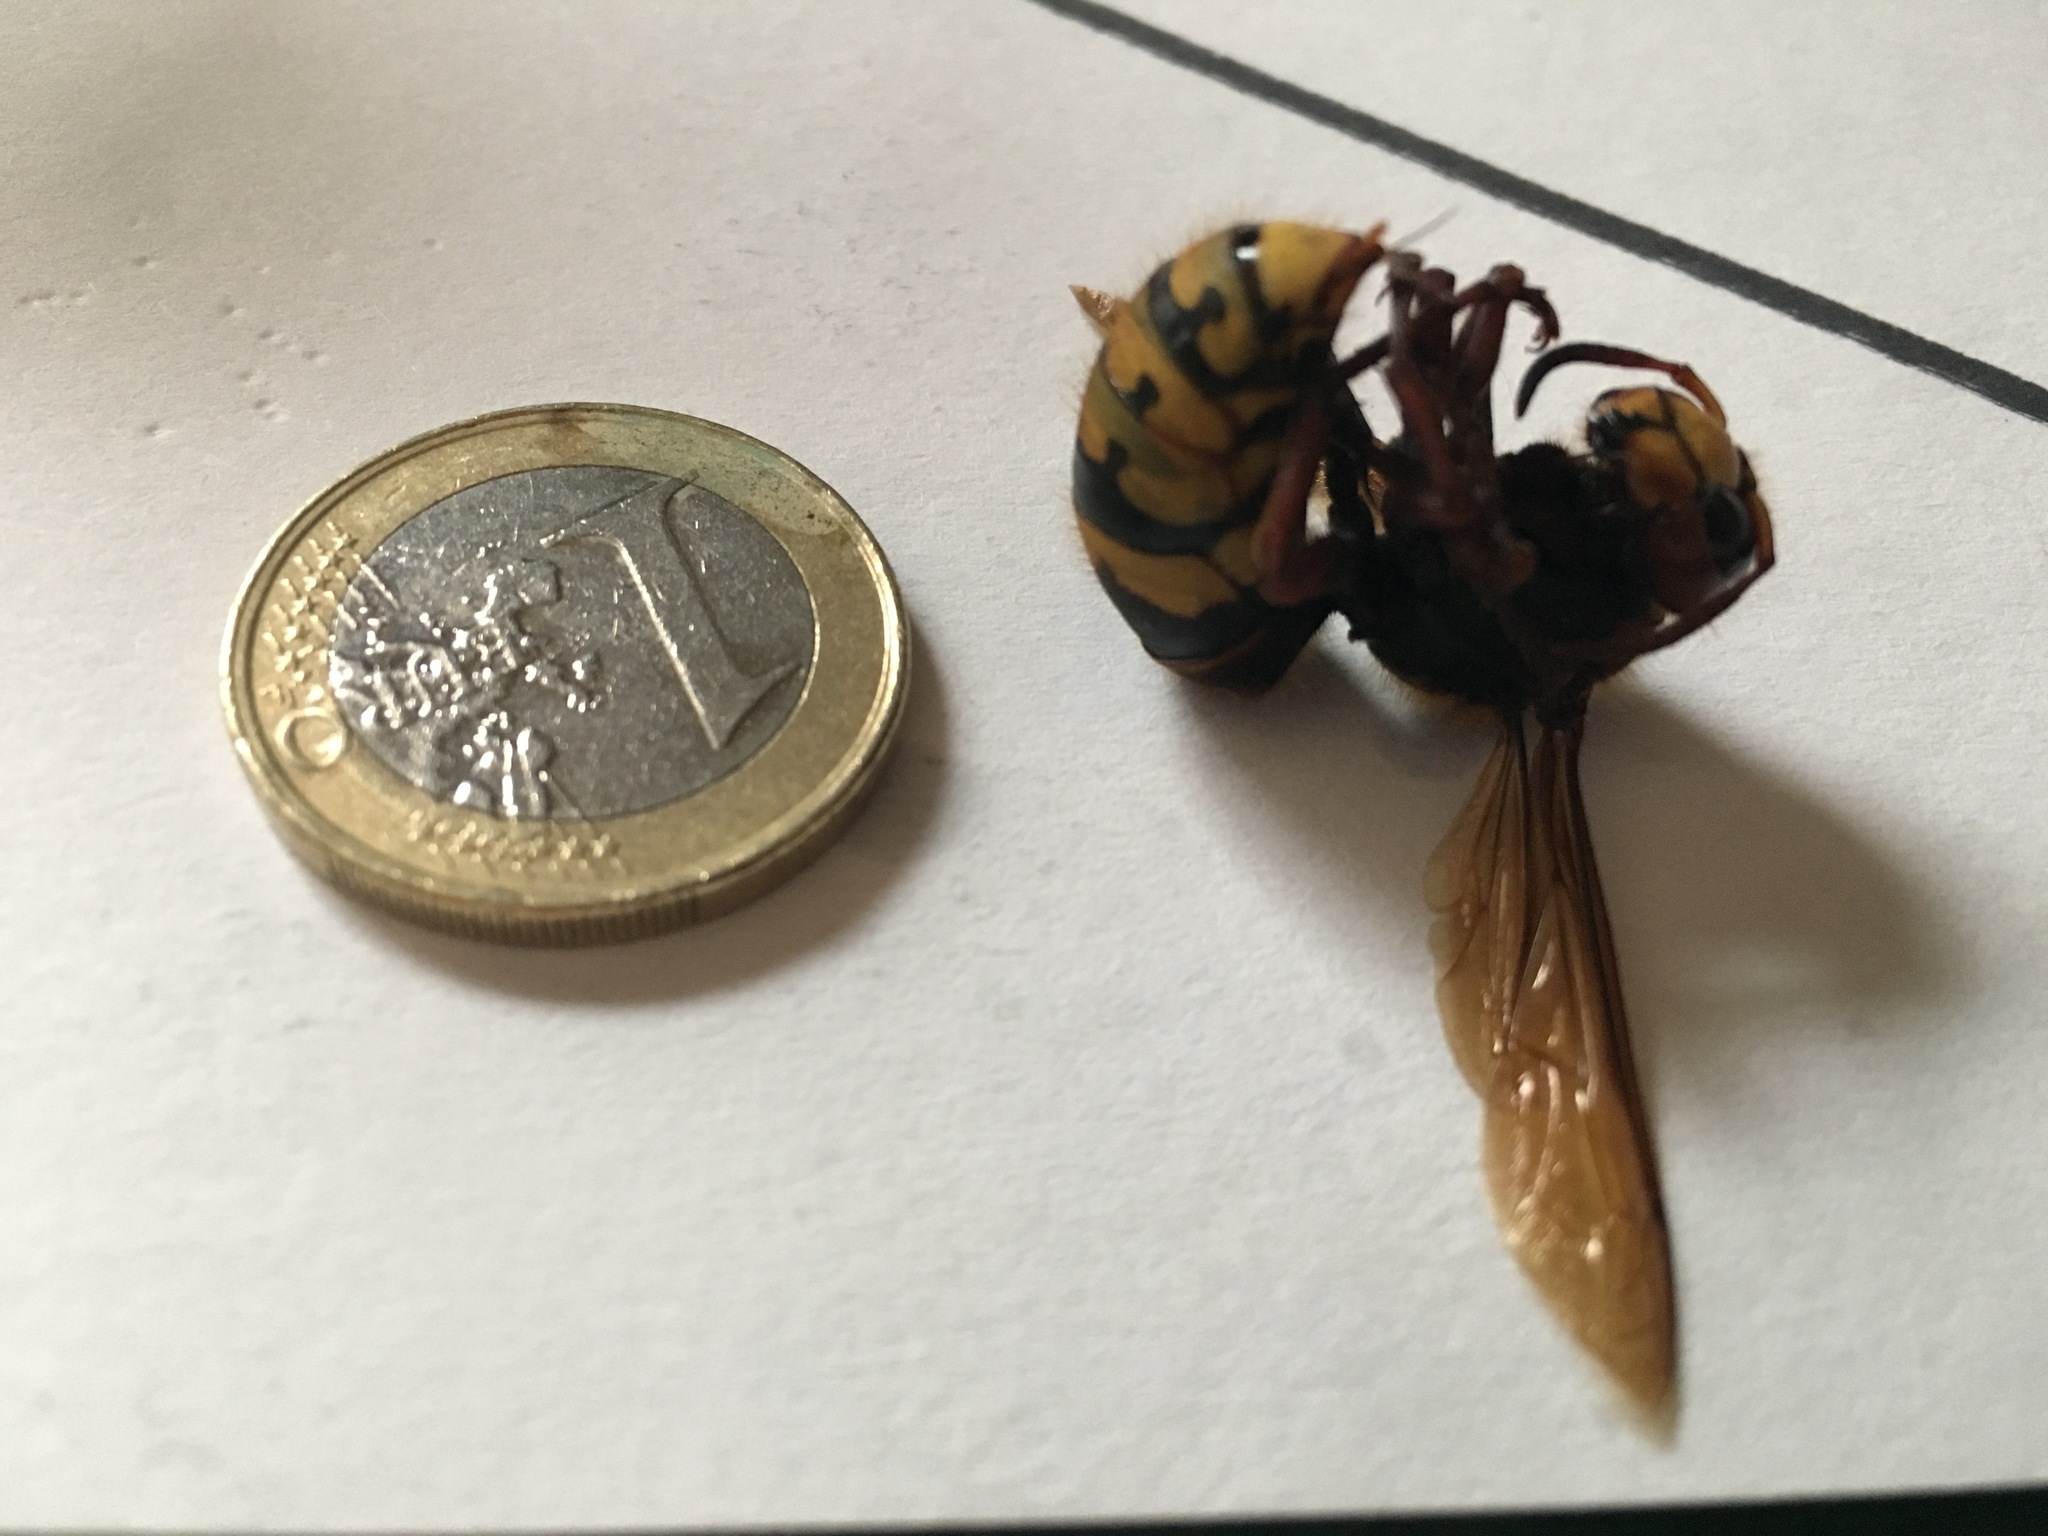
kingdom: Animalia
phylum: Arthropoda
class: Insecta
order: Hymenoptera
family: Vespidae
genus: Vespa
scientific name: Vespa crabro
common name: Hornet
